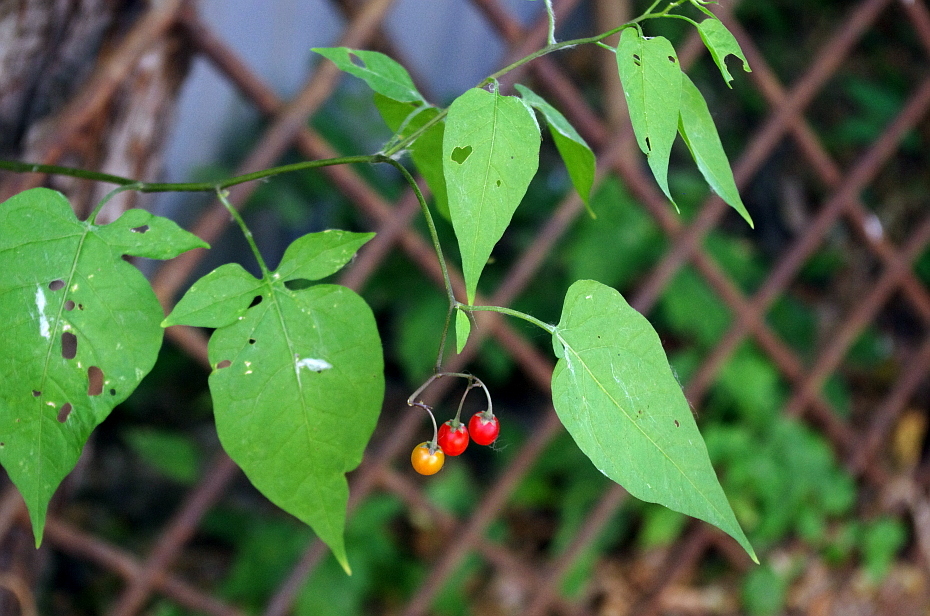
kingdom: Plantae
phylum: Tracheophyta
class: Magnoliopsida
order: Solanales
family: Solanaceae
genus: Solanum
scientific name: Solanum dulcamara
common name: Climbing nightshade
